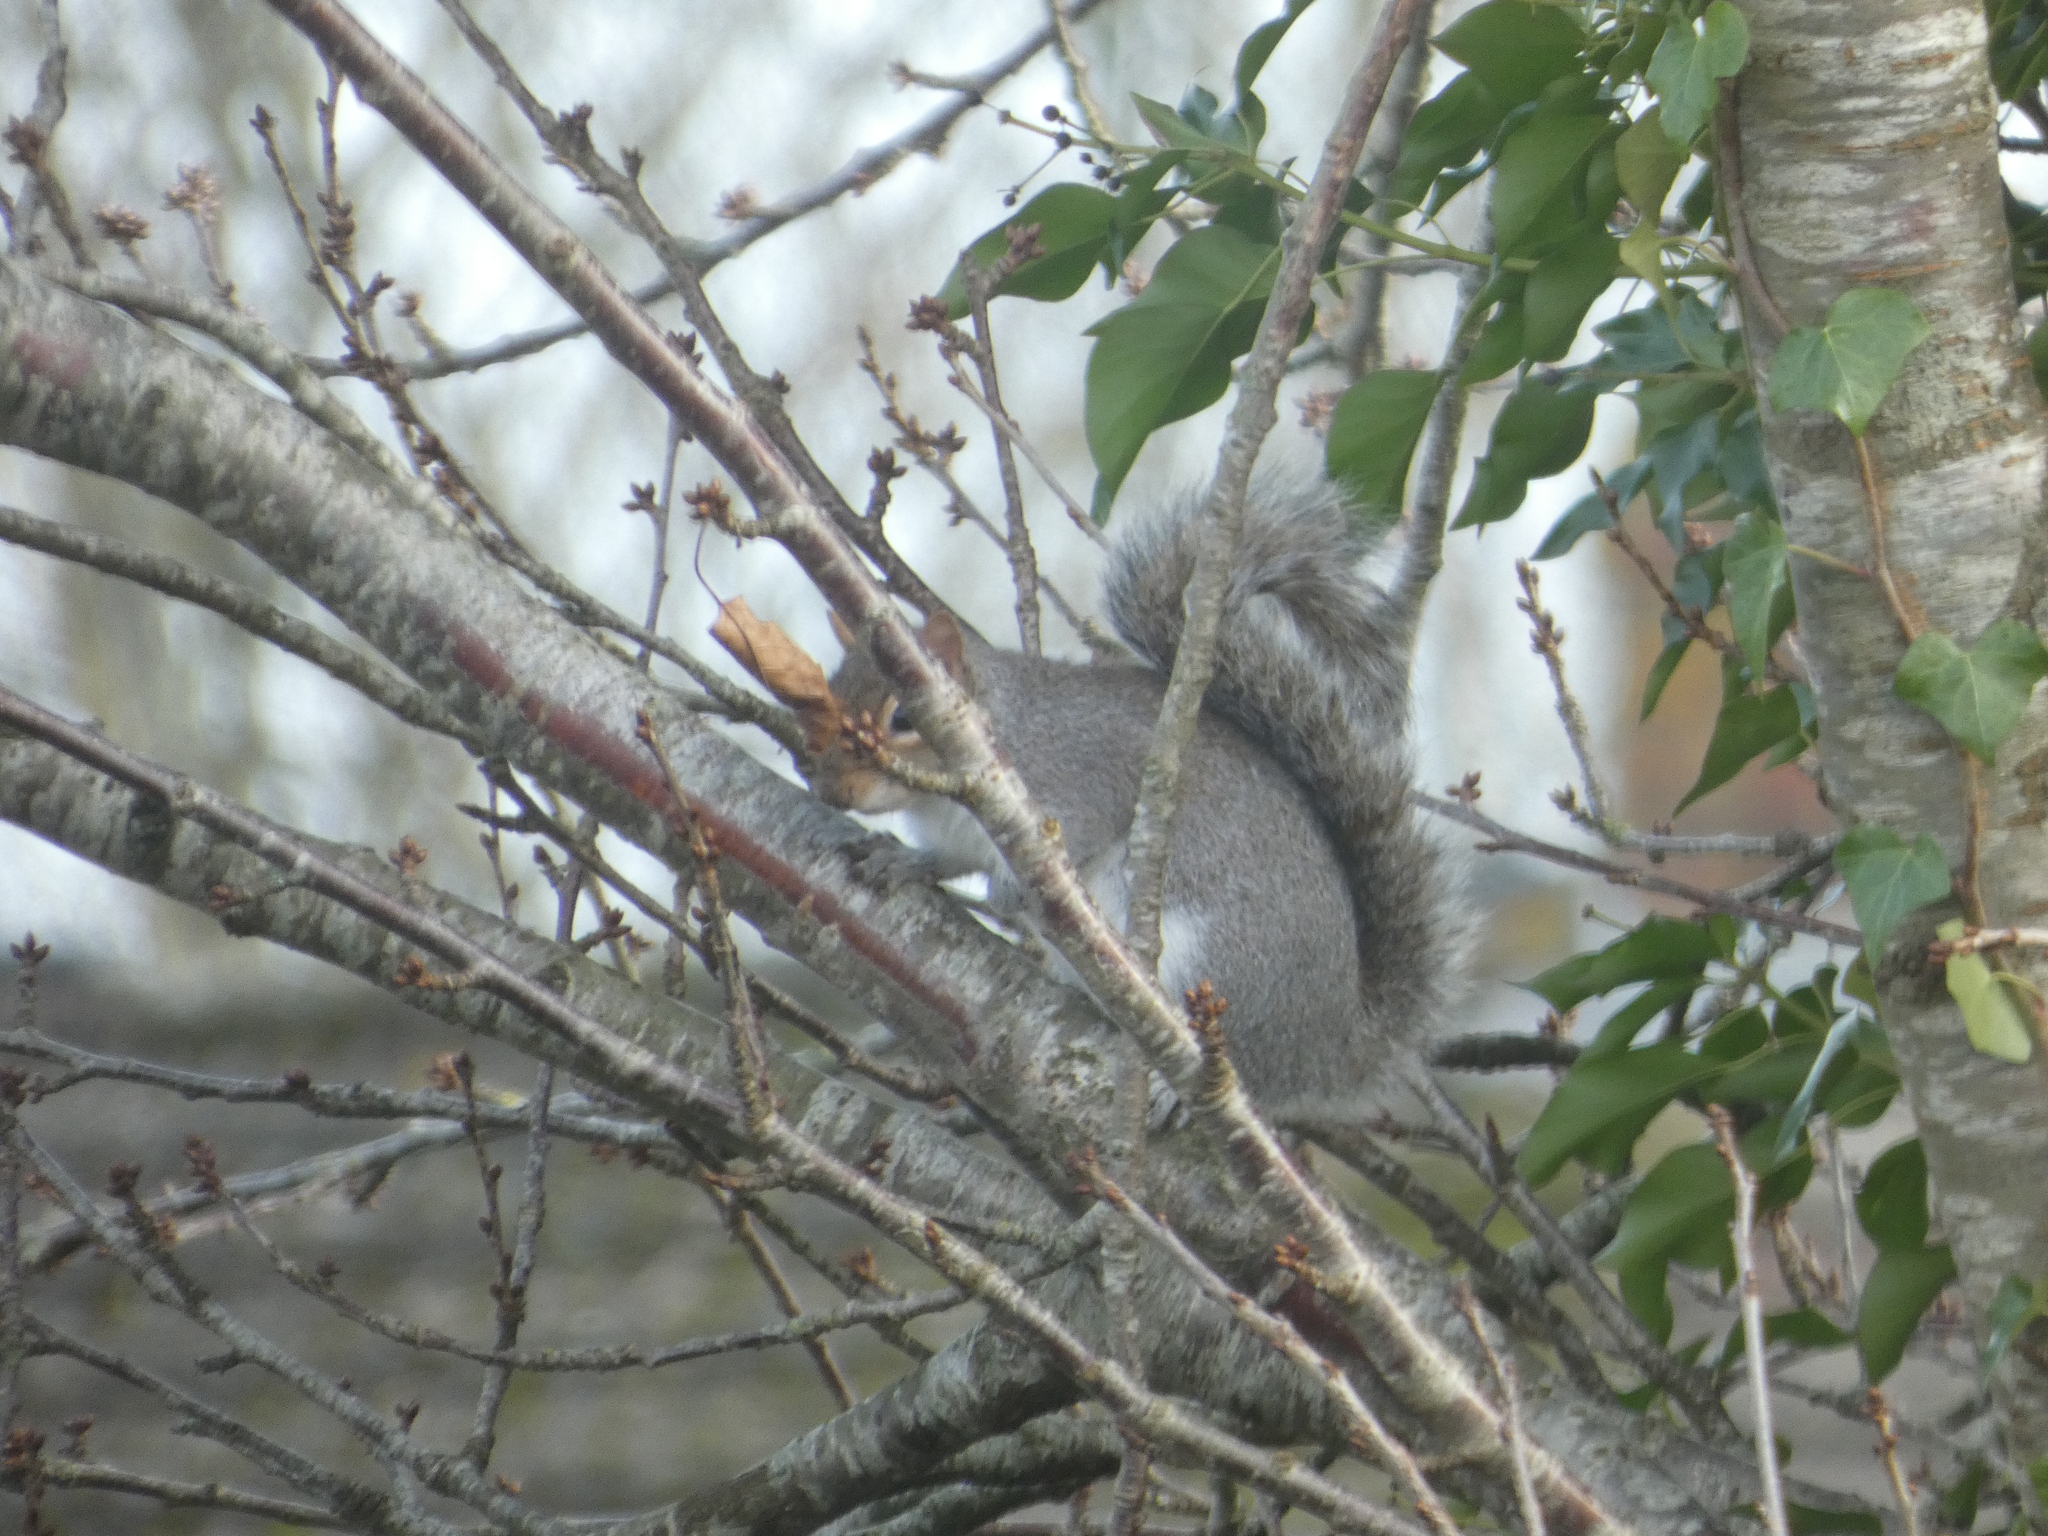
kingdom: Animalia
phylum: Chordata
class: Mammalia
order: Rodentia
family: Sciuridae
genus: Sciurus
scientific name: Sciurus carolinensis
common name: Eastern gray squirrel
